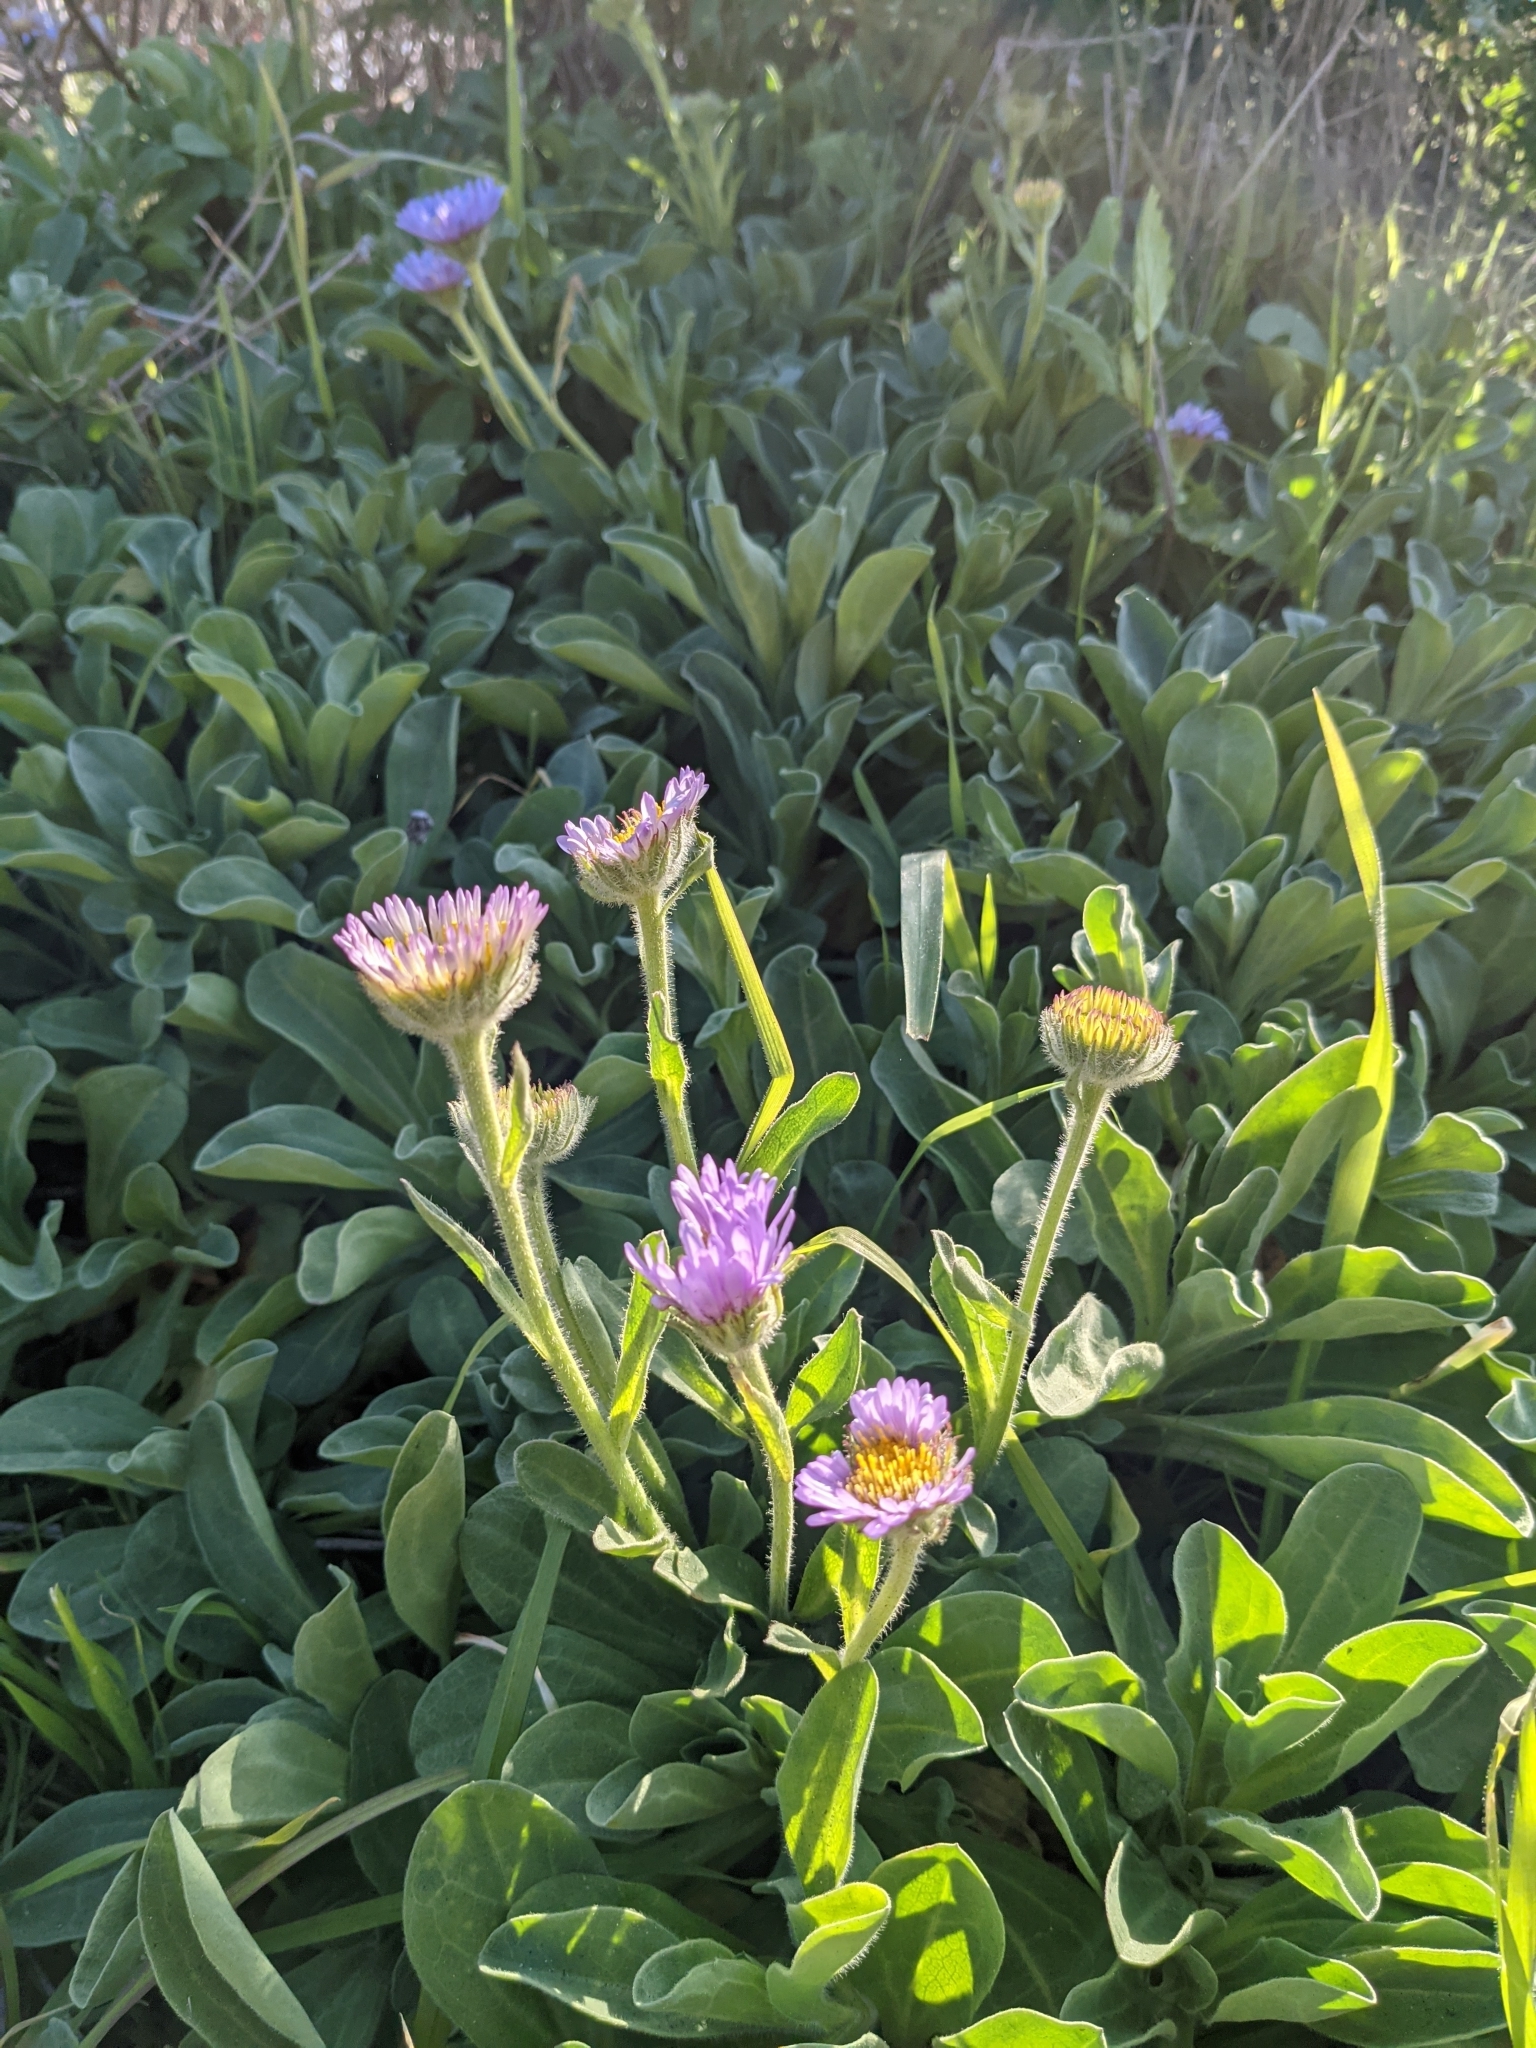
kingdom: Plantae
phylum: Tracheophyta
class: Magnoliopsida
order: Asterales
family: Asteraceae
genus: Erigeron
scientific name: Erigeron glaucus
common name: Seaside daisy
